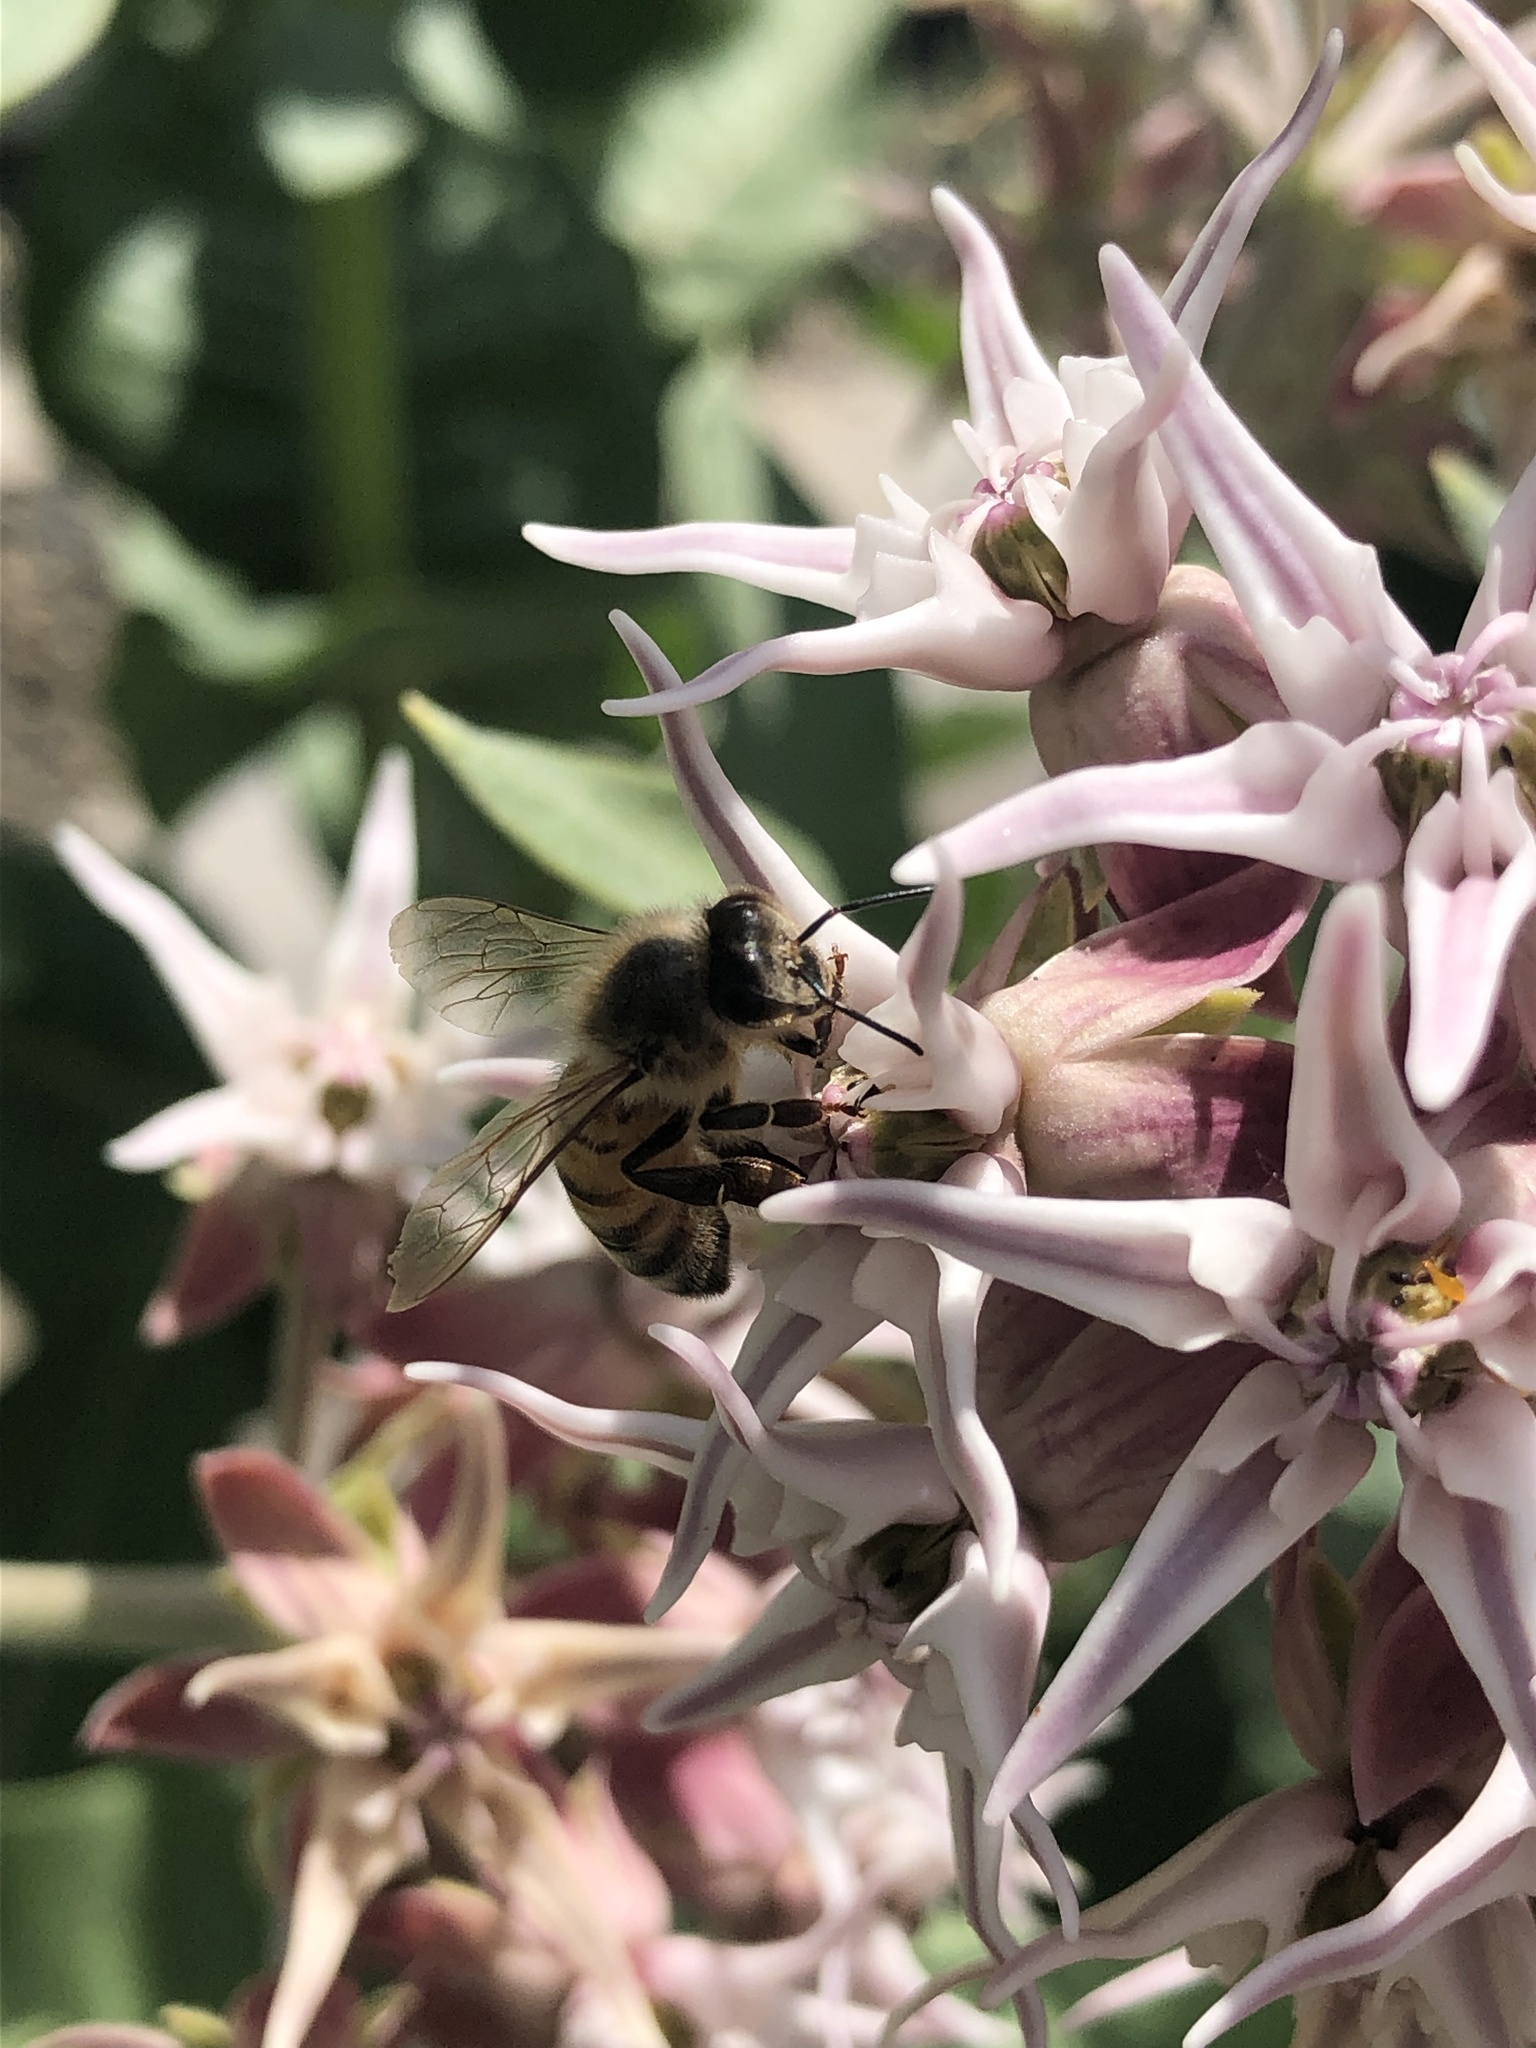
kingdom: Animalia
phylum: Arthropoda
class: Insecta
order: Hymenoptera
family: Apidae
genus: Apis
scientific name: Apis mellifera
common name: Honey bee
